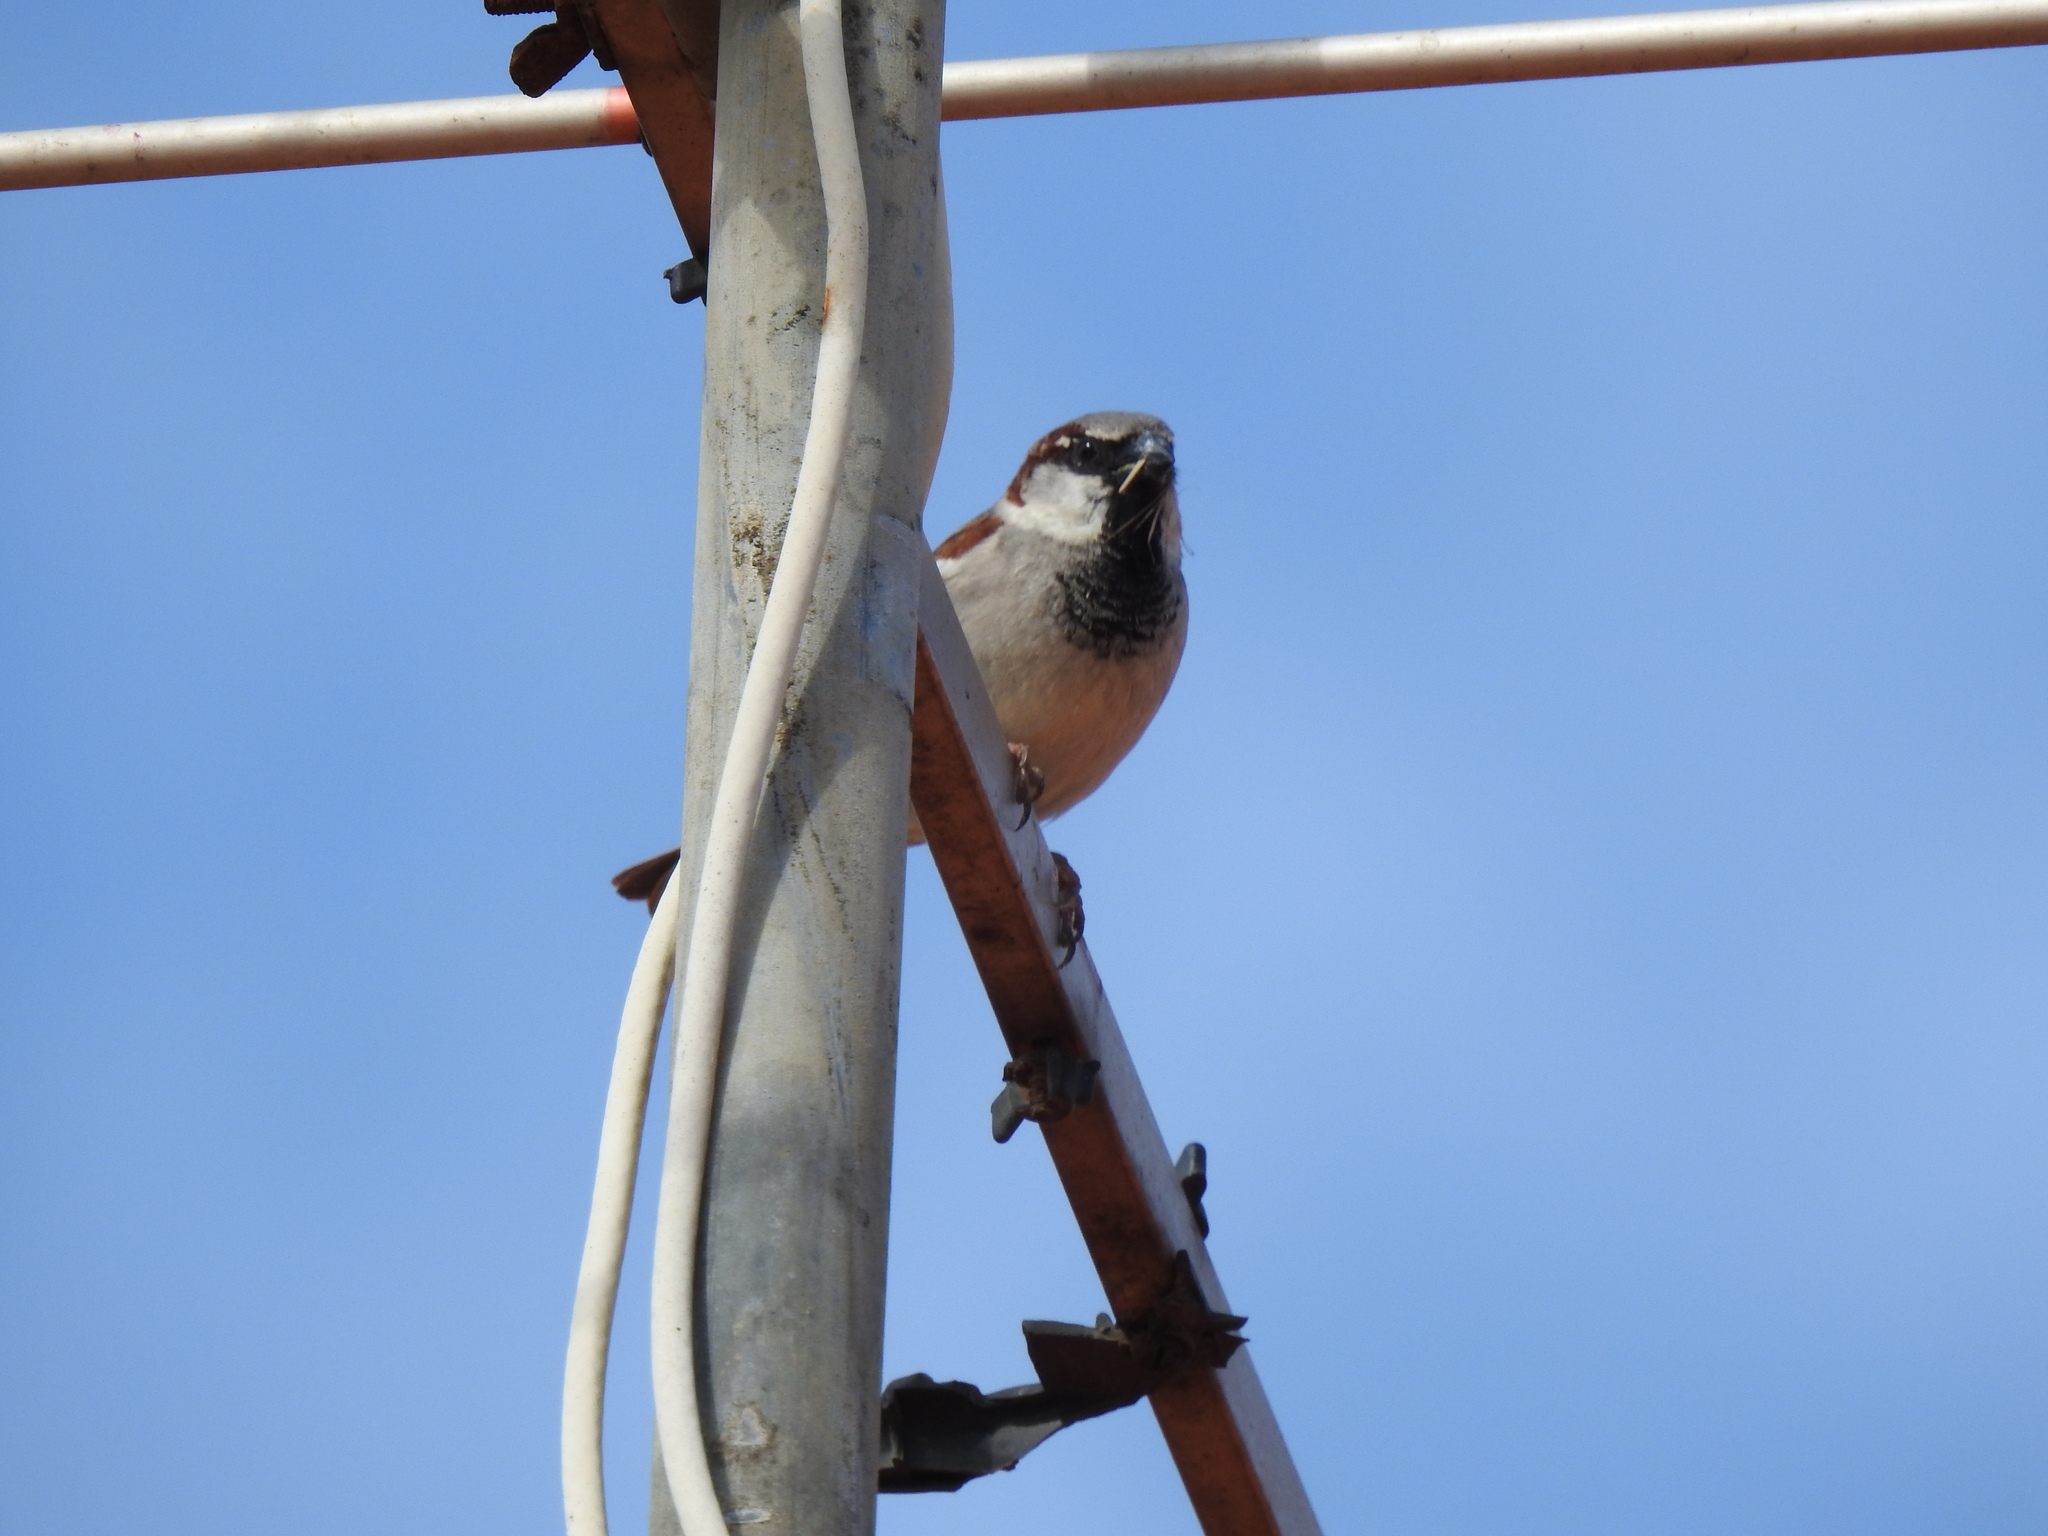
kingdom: Animalia
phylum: Chordata
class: Aves
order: Passeriformes
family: Passeridae
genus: Passer
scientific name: Passer domesticus
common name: House sparrow
